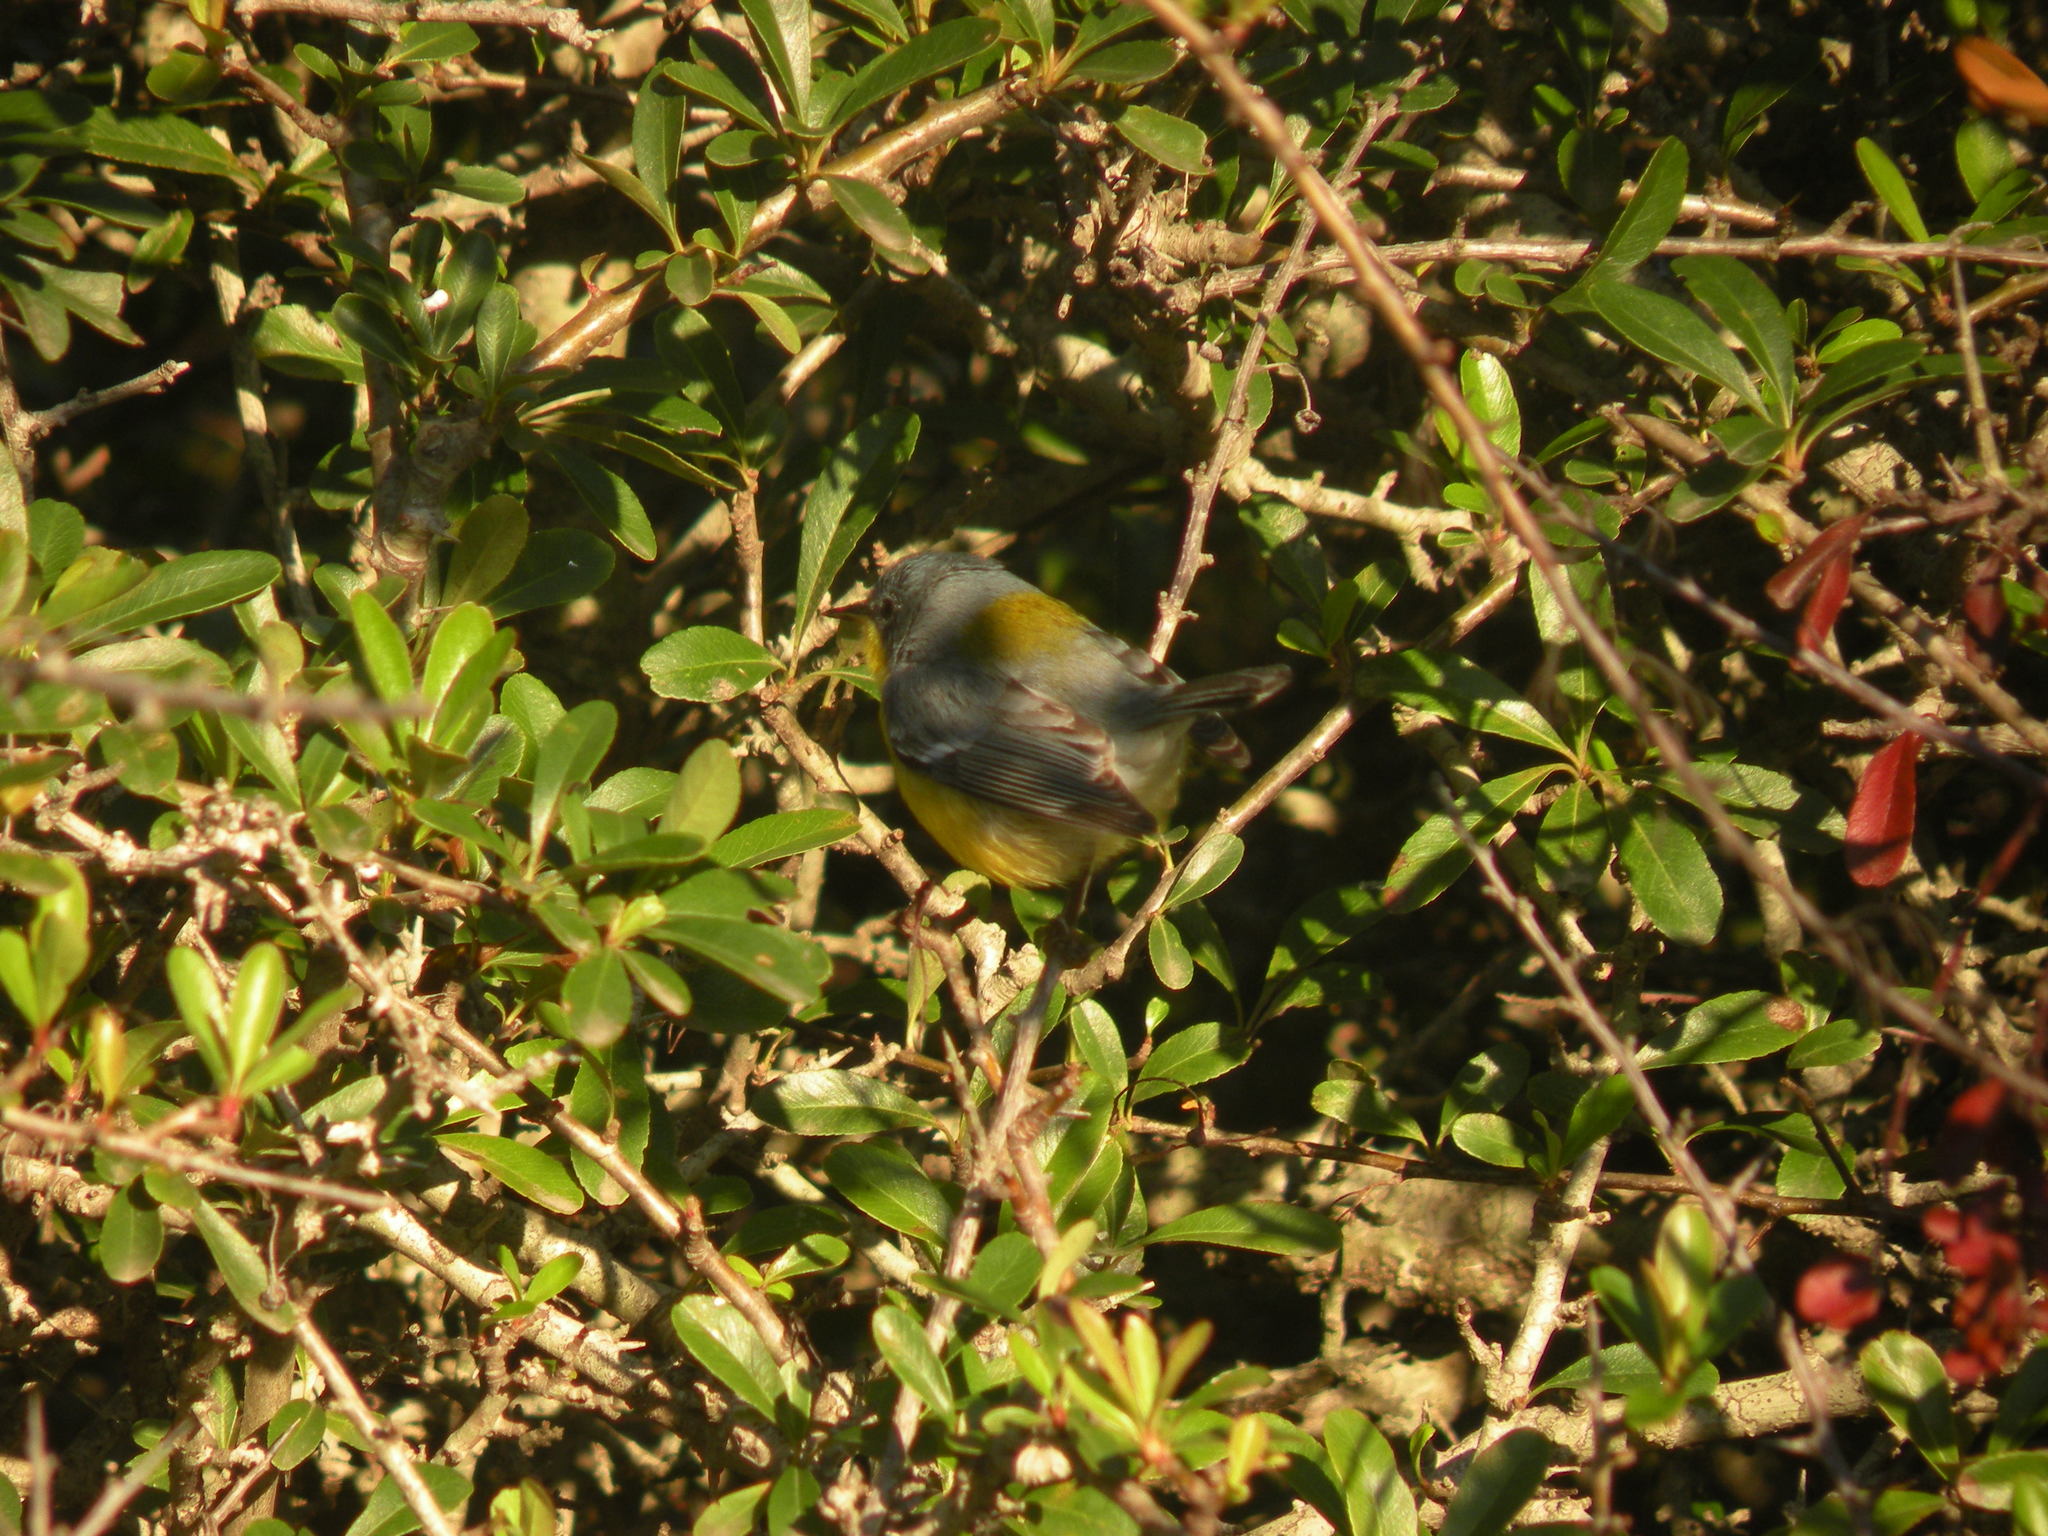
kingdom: Animalia
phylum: Chordata
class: Aves
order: Passeriformes
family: Parulidae
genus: Setophaga
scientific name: Setophaga pitiayumi
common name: Tropical parula
